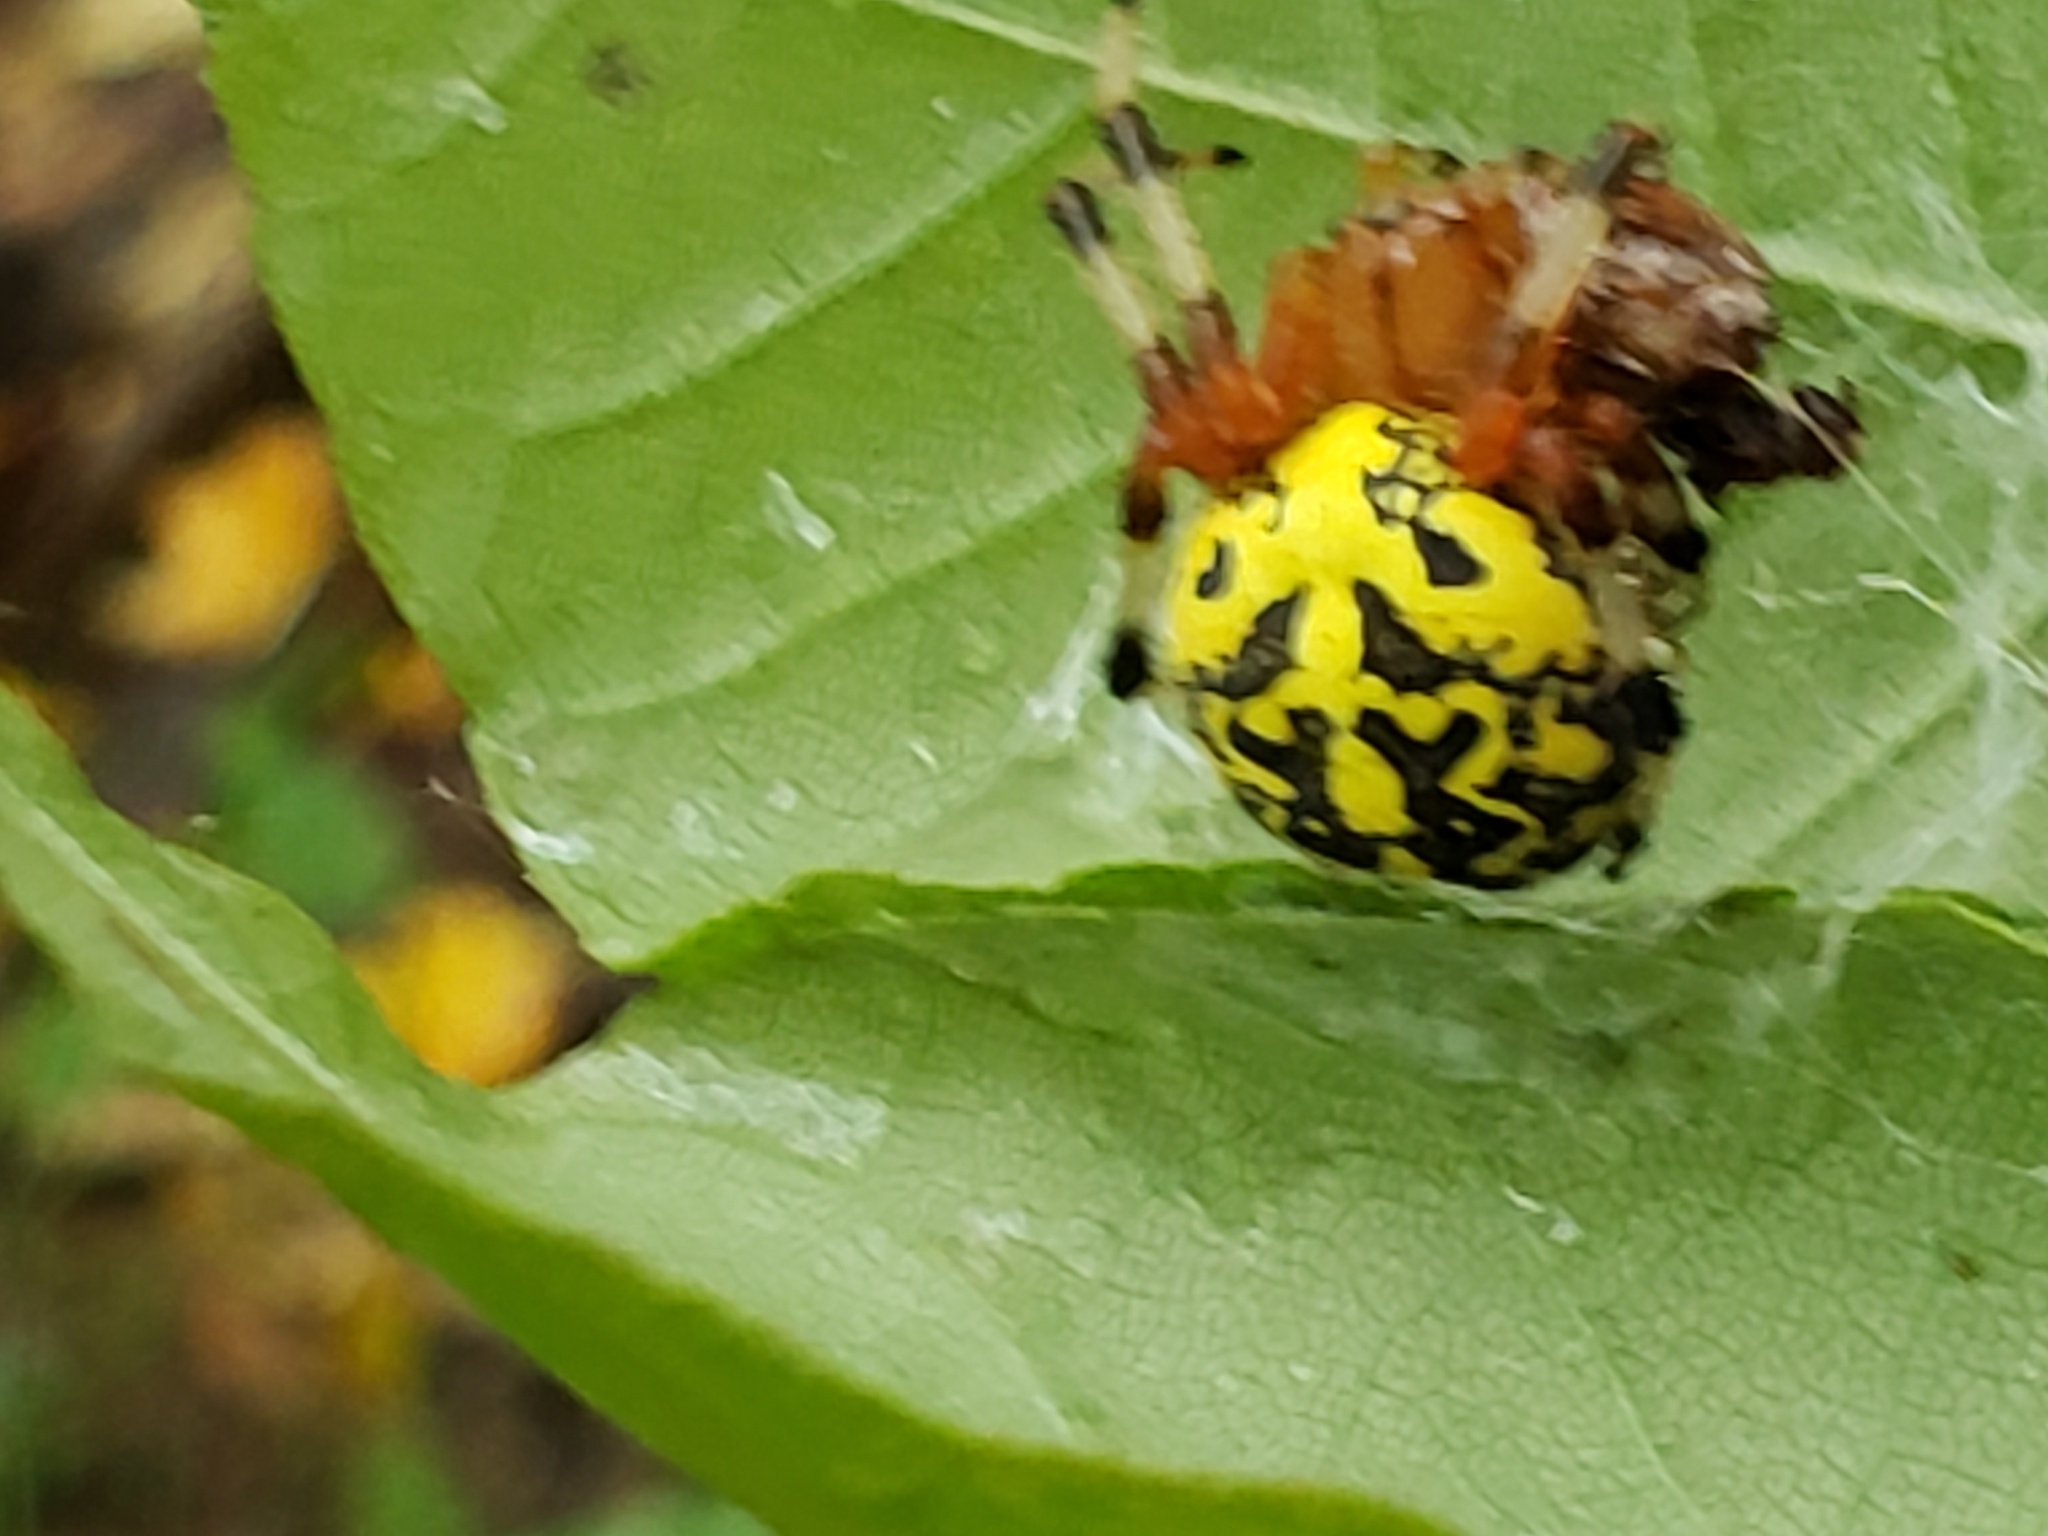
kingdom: Animalia
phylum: Arthropoda
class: Arachnida
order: Araneae
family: Araneidae
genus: Araneus
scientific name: Araneus marmoreus
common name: Marbled orbweaver
